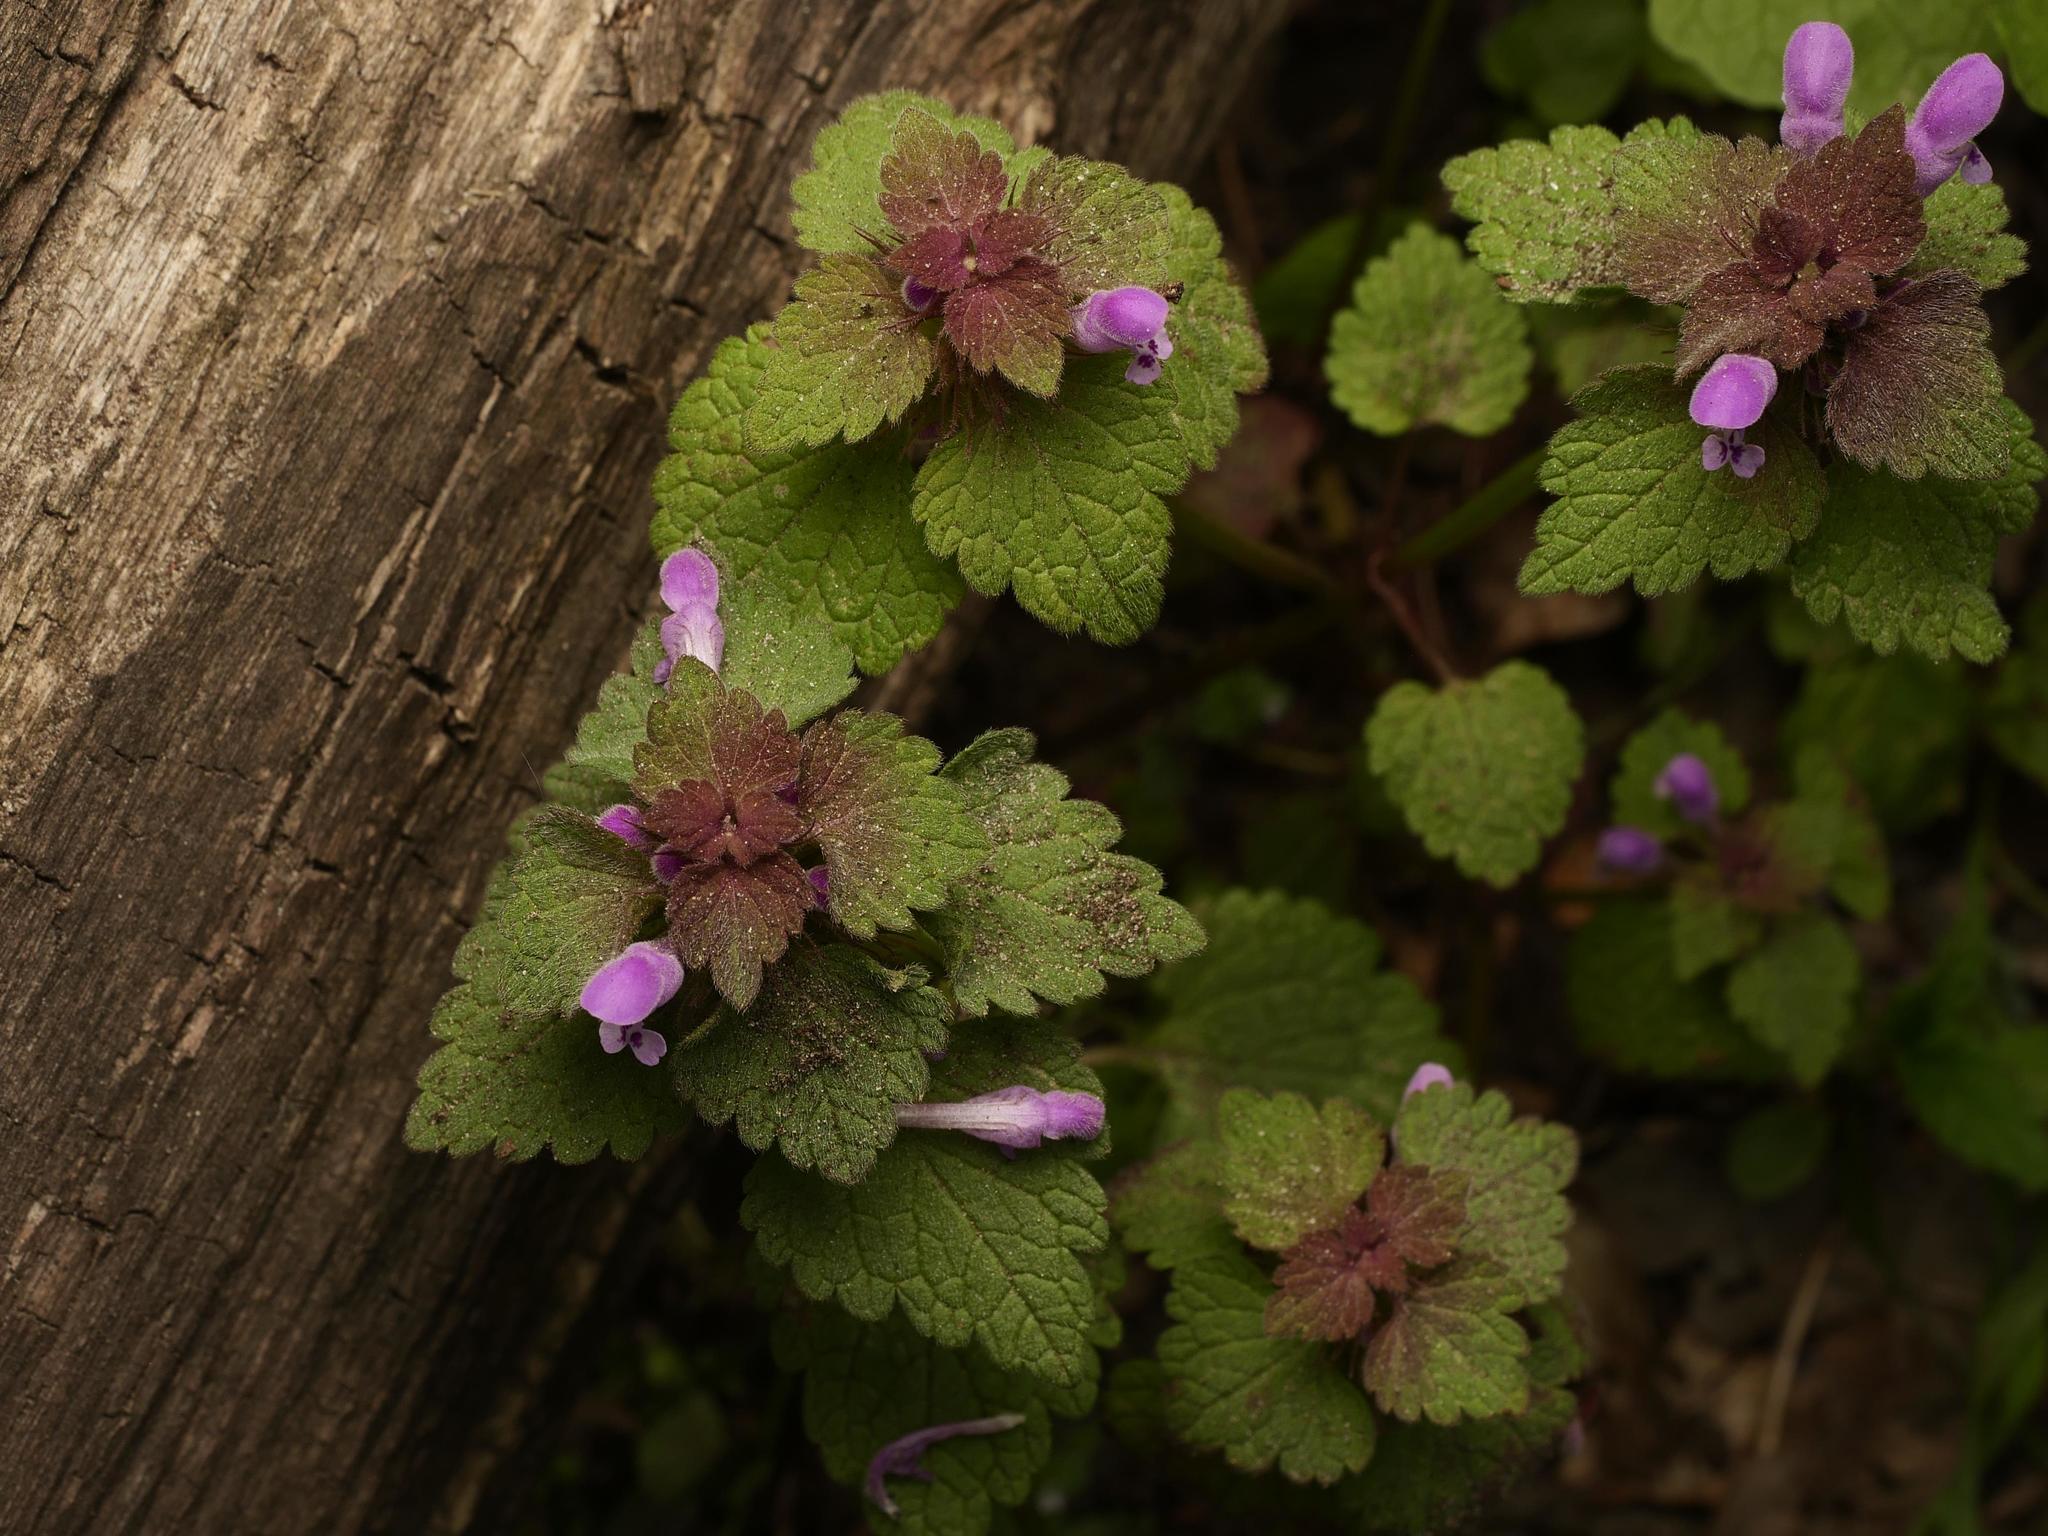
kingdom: Plantae
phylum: Tracheophyta
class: Magnoliopsida
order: Lamiales
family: Lamiaceae
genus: Lamium
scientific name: Lamium purpureum
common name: Red dead-nettle
